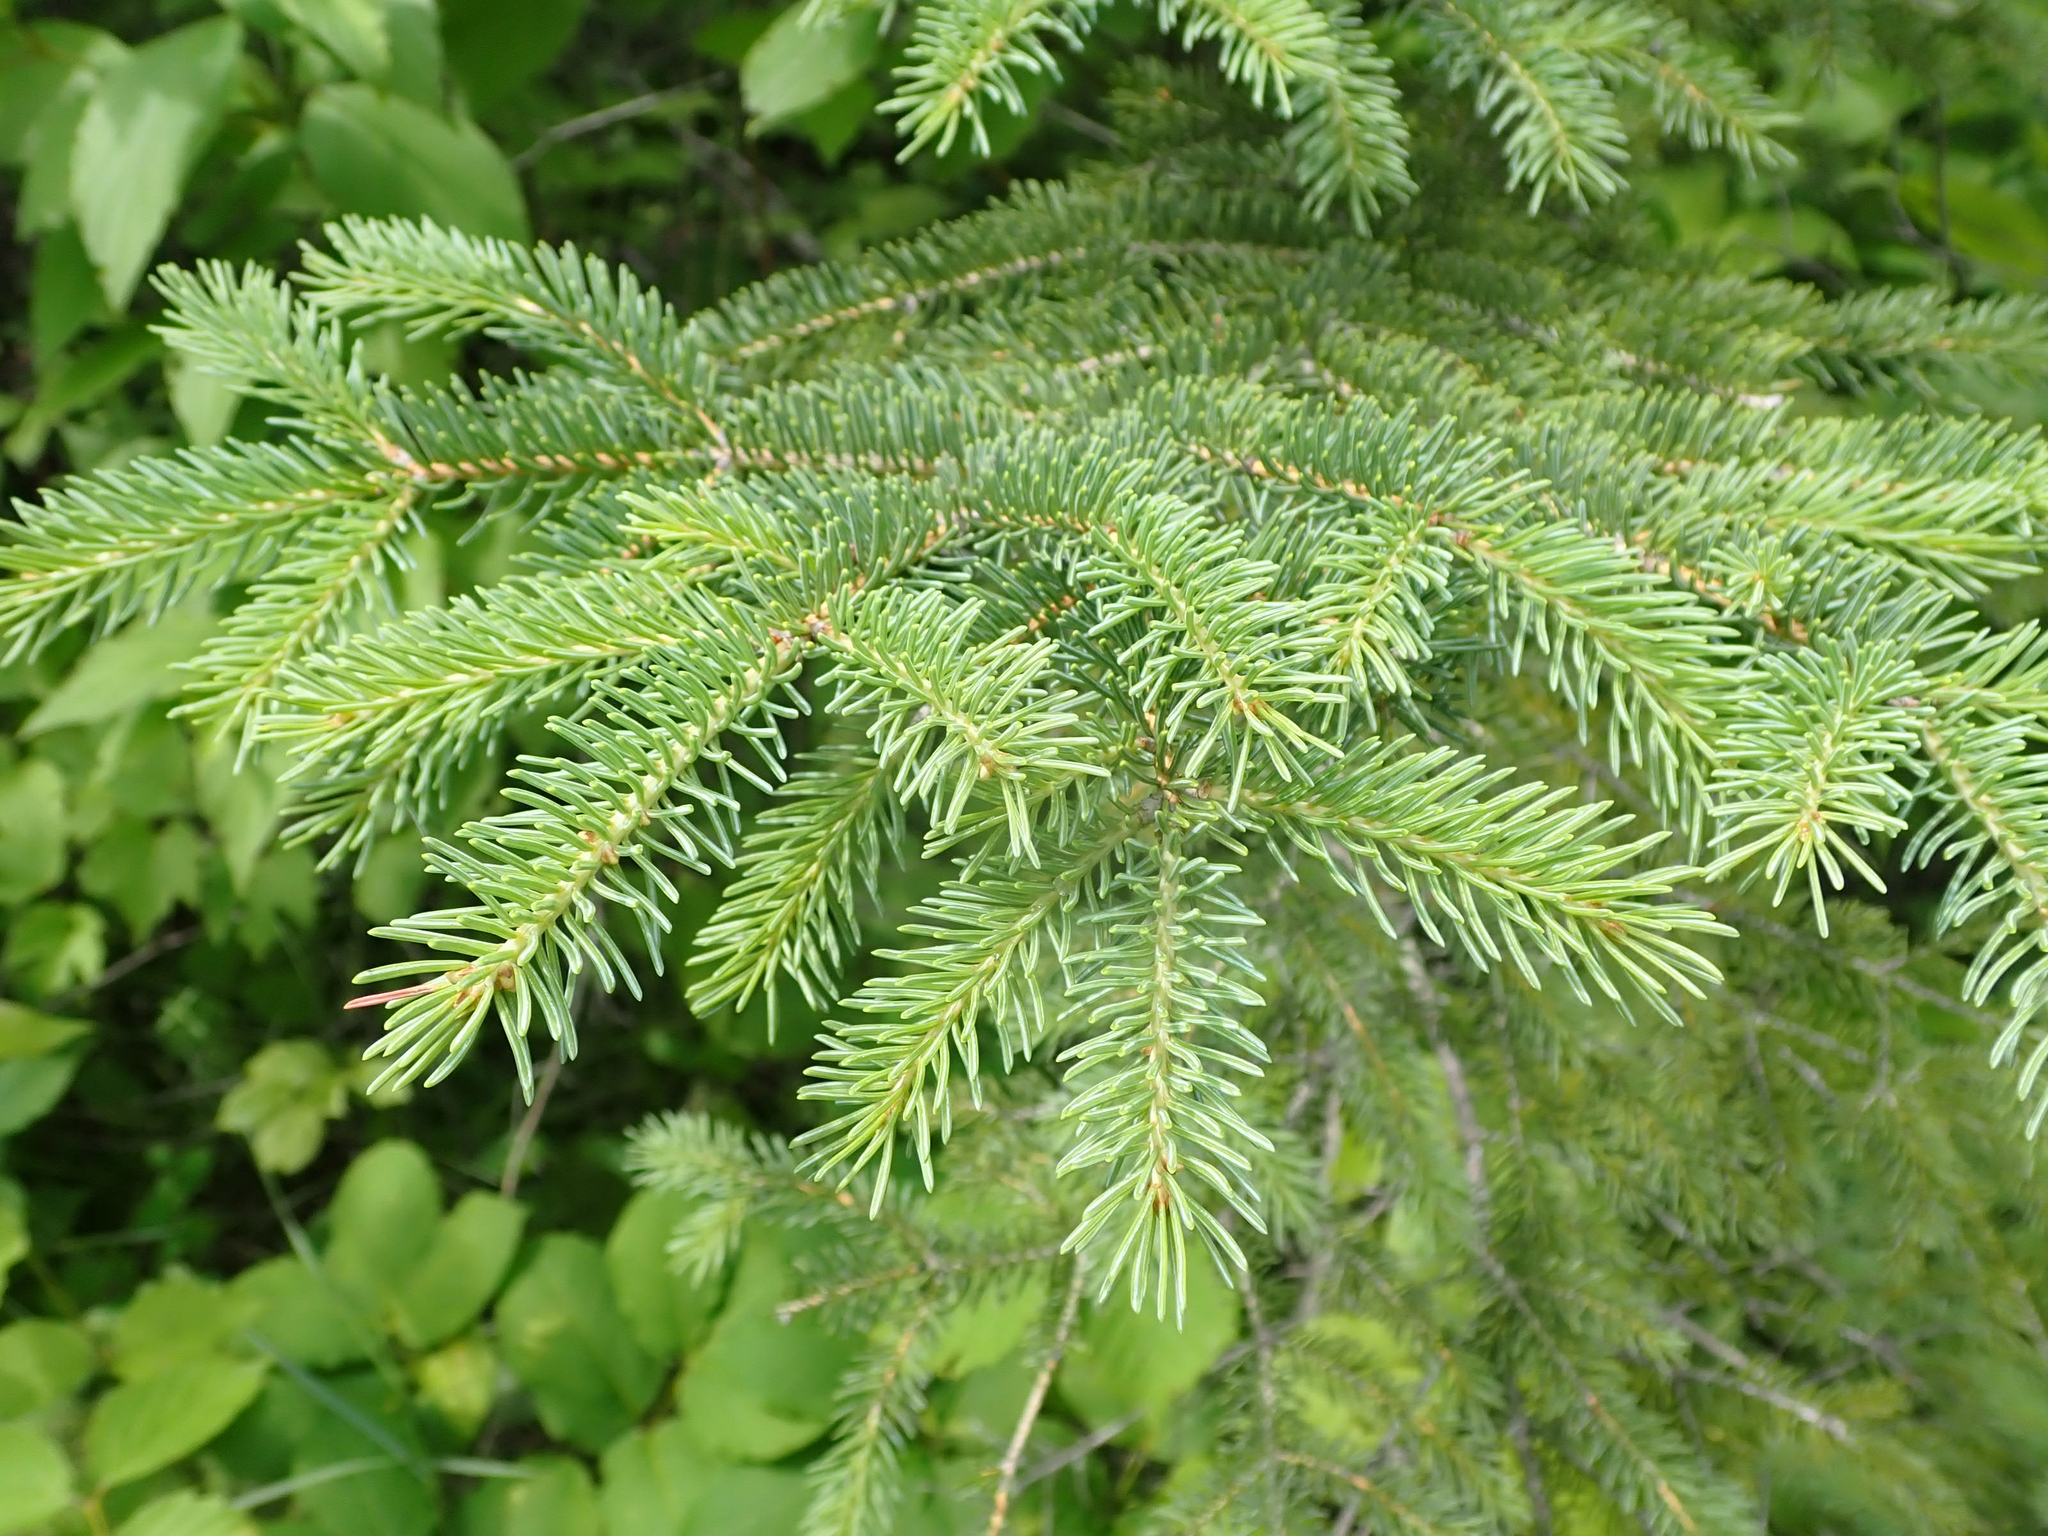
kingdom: Plantae
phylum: Tracheophyta
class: Pinopsida
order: Pinales
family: Pinaceae
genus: Picea
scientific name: Picea glauca
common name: White spruce
